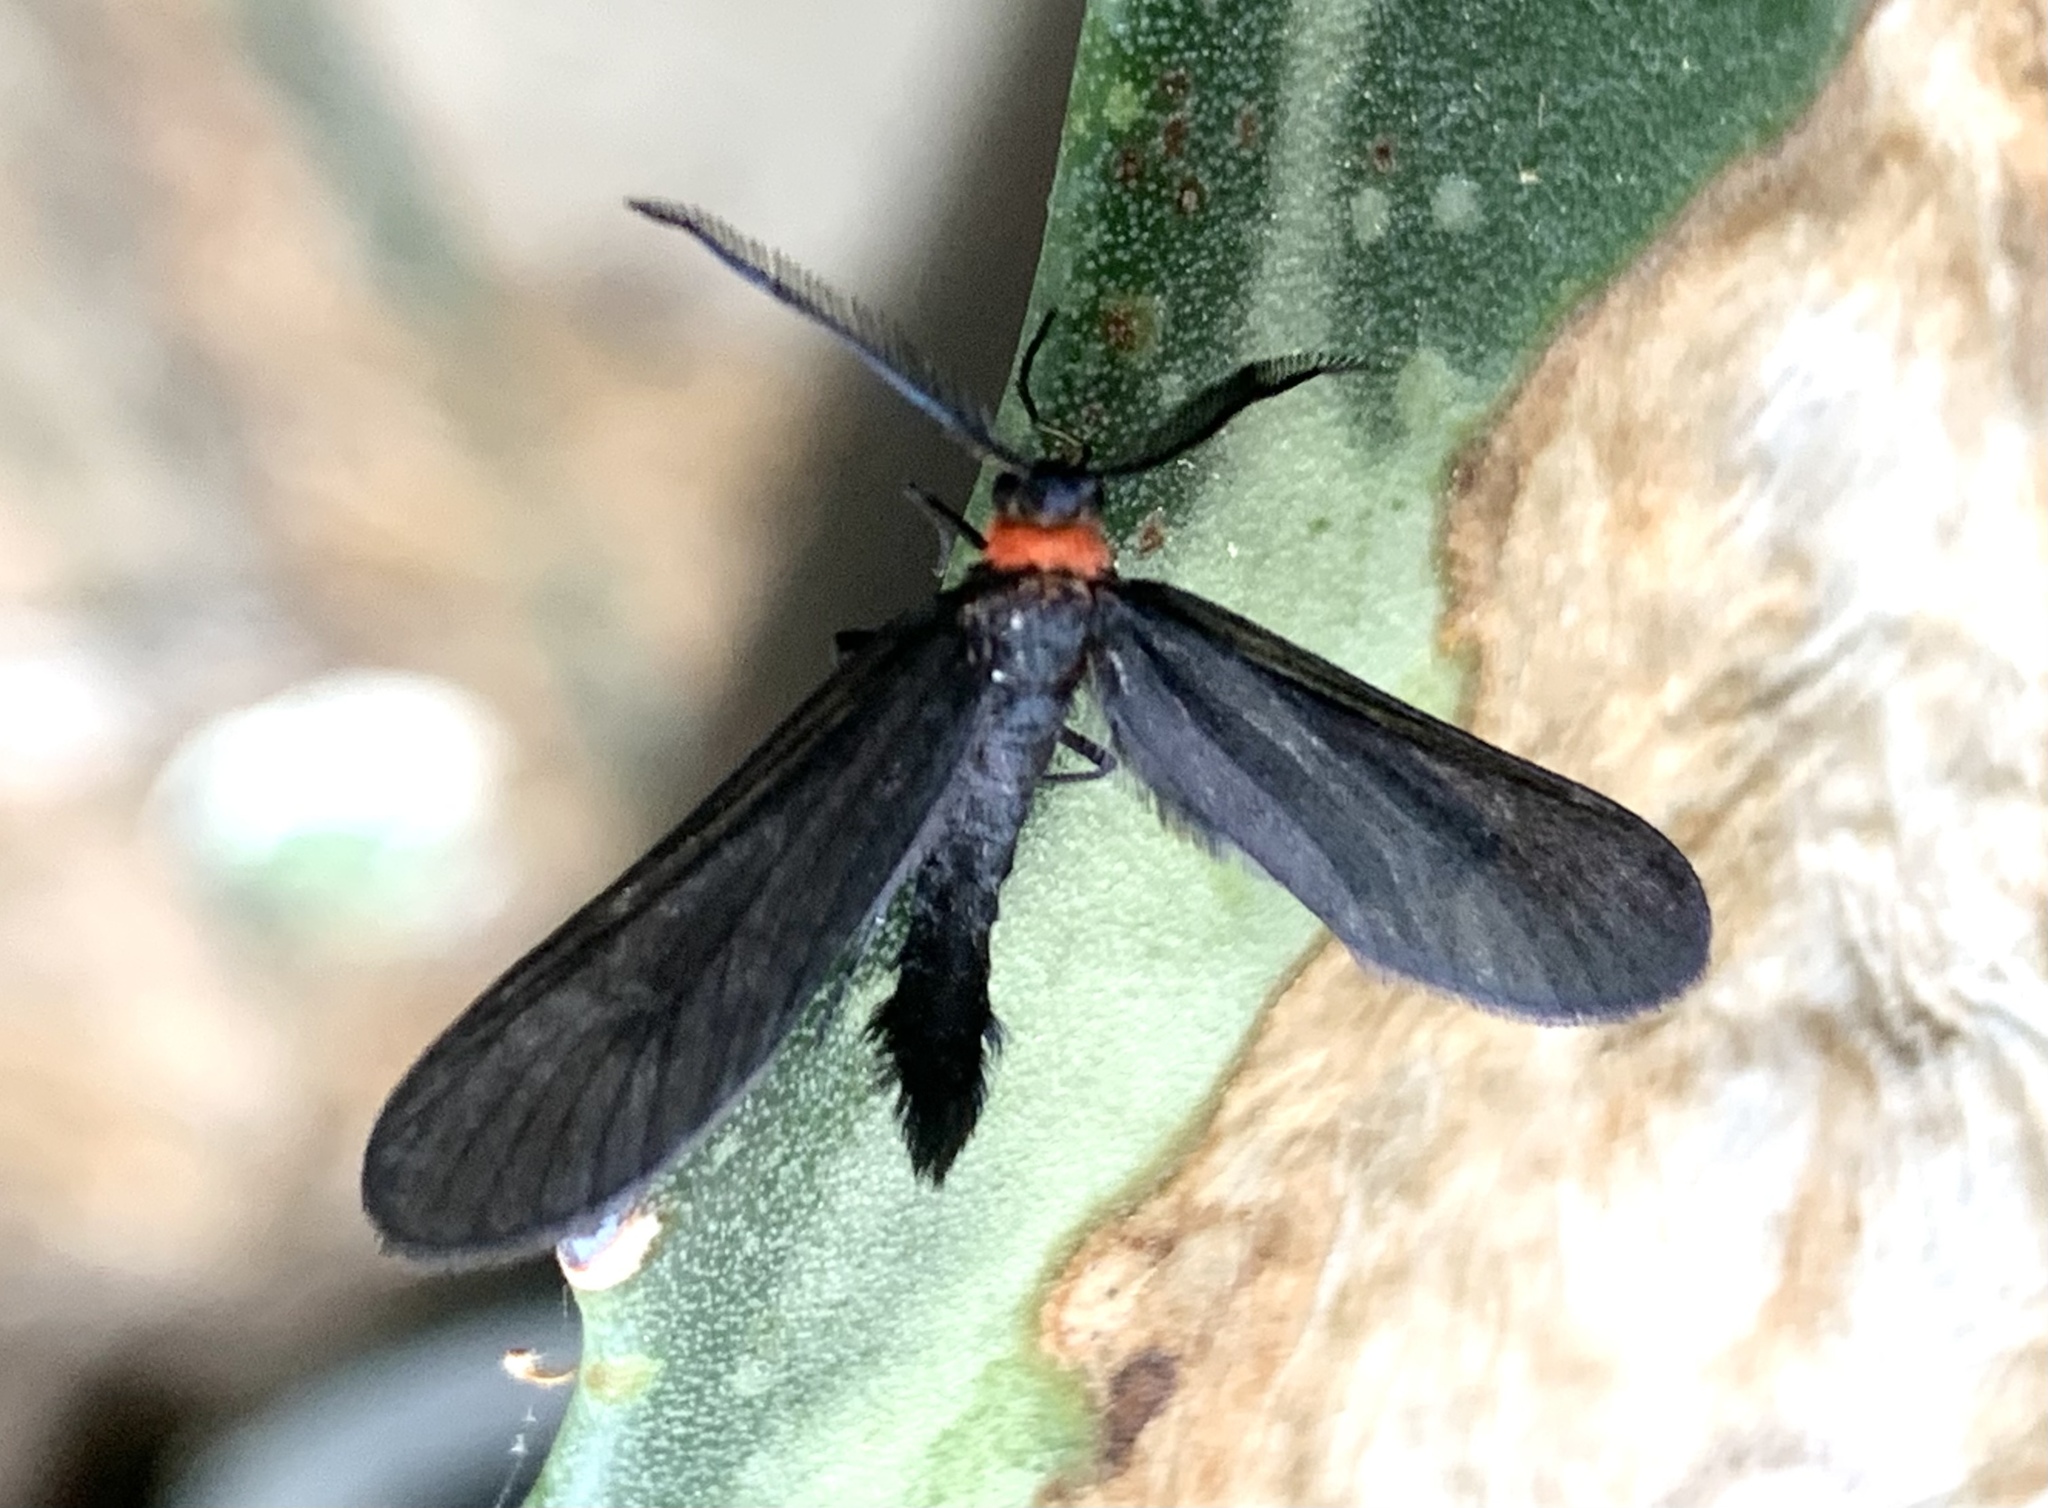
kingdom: Animalia
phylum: Arthropoda
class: Insecta
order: Lepidoptera
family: Zygaenidae
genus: Harrisina
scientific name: Harrisina americana
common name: Grapeleaf skeletonizer moth
